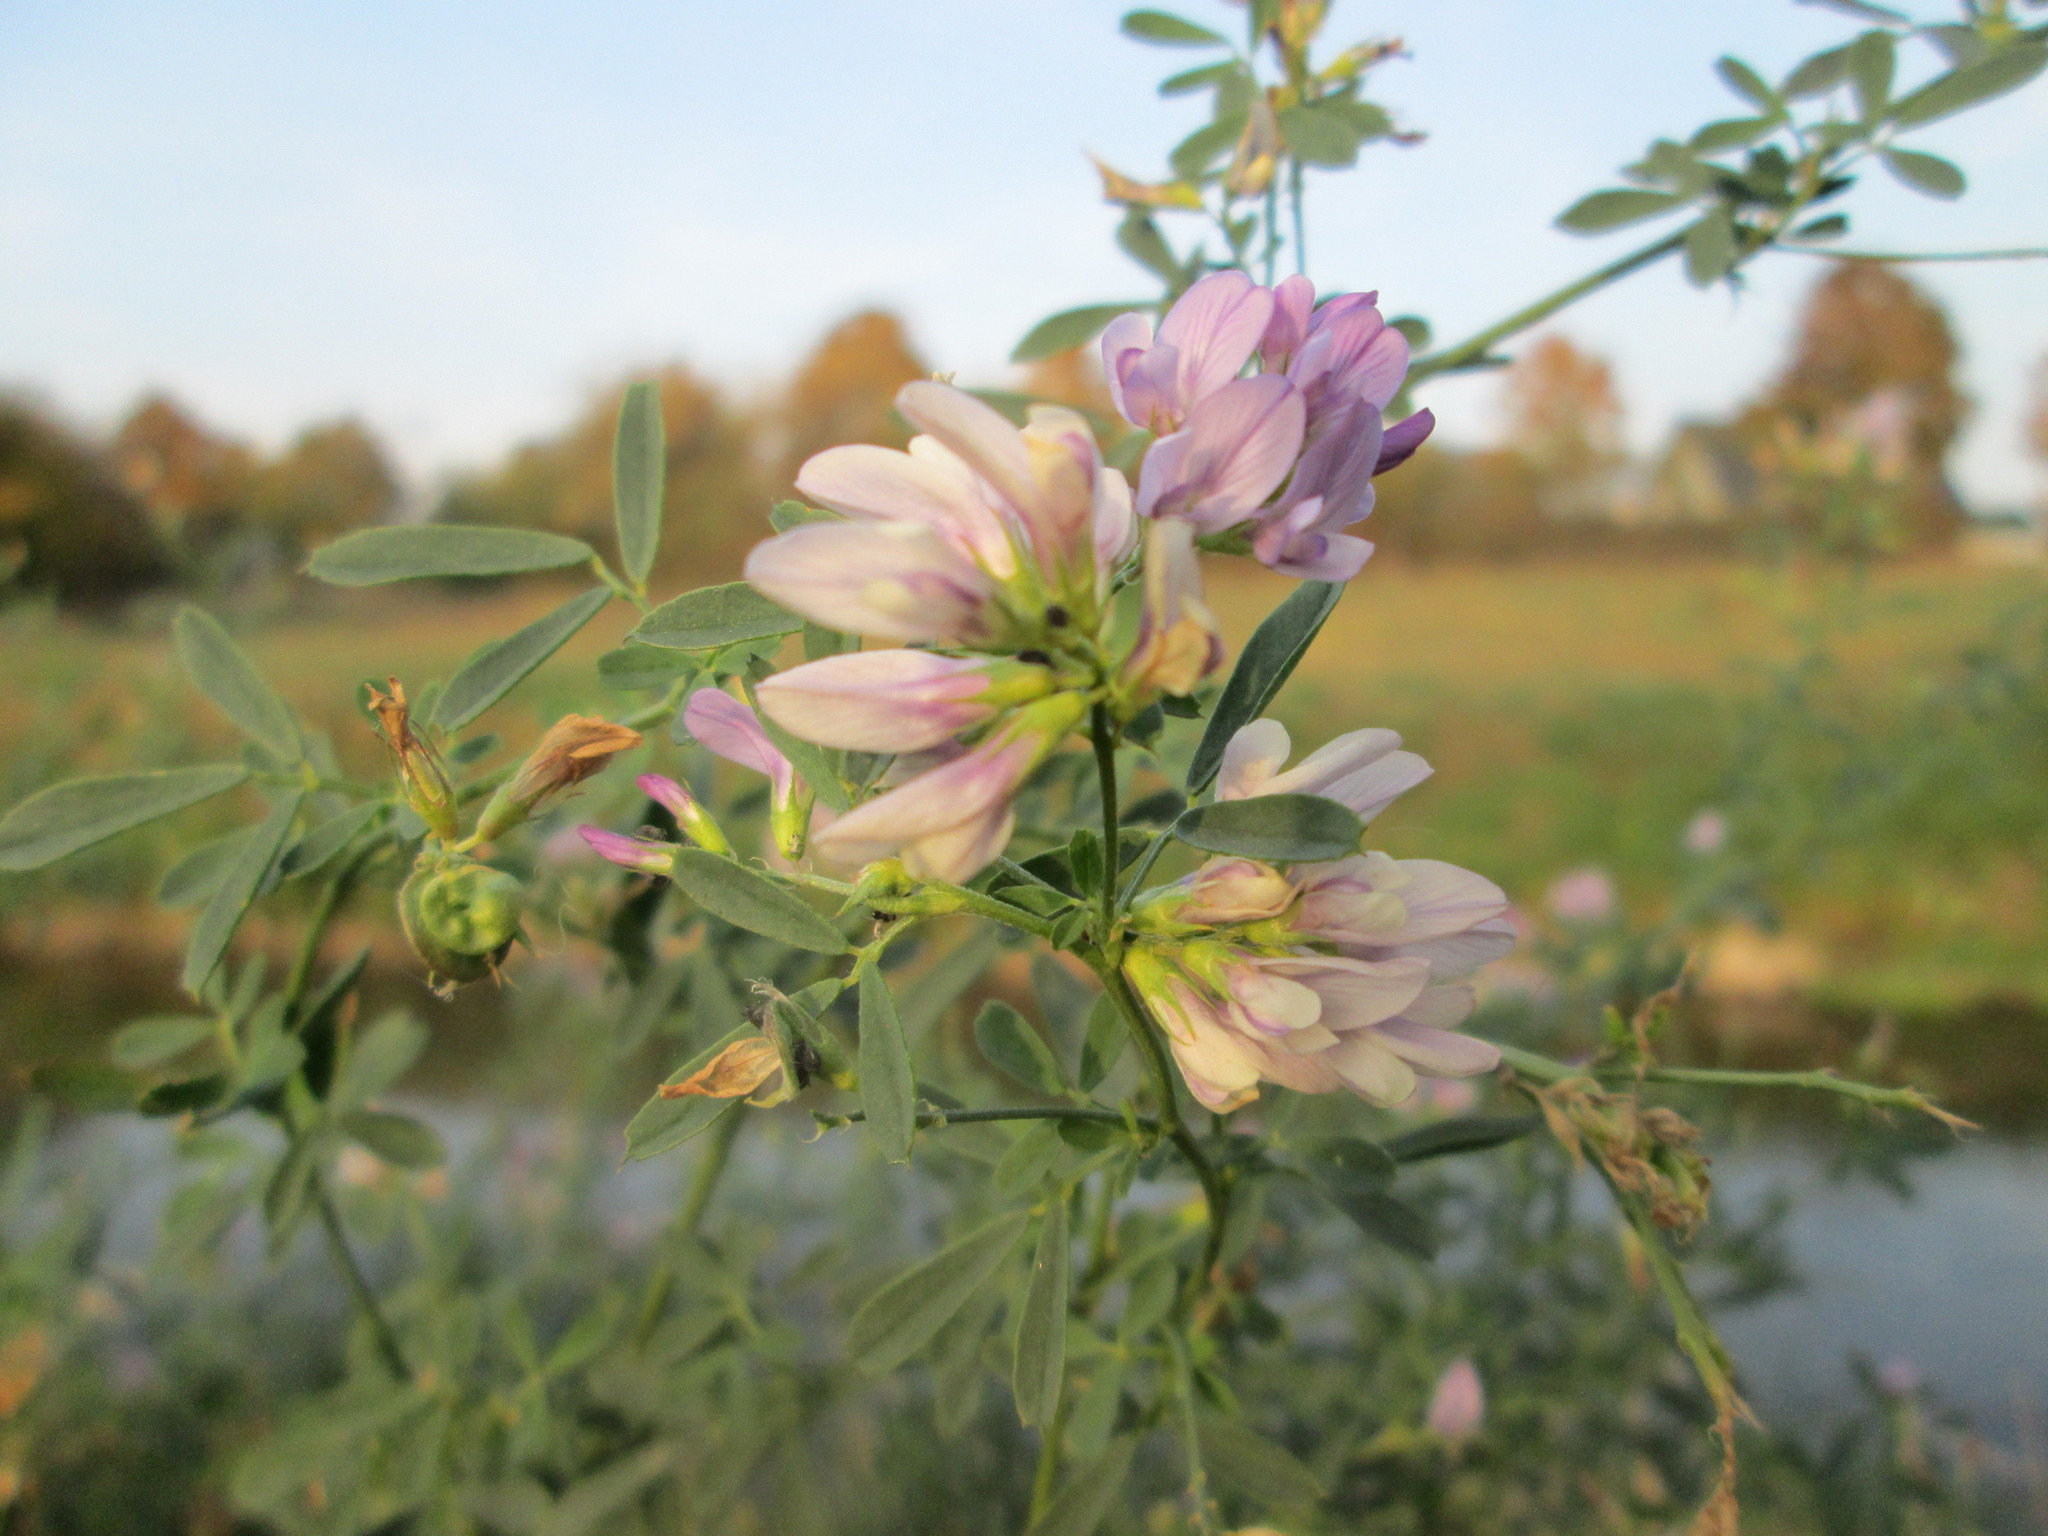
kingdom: Plantae
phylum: Tracheophyta
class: Magnoliopsida
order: Fabales
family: Fabaceae
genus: Medicago
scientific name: Medicago sativa
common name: Alfalfa
